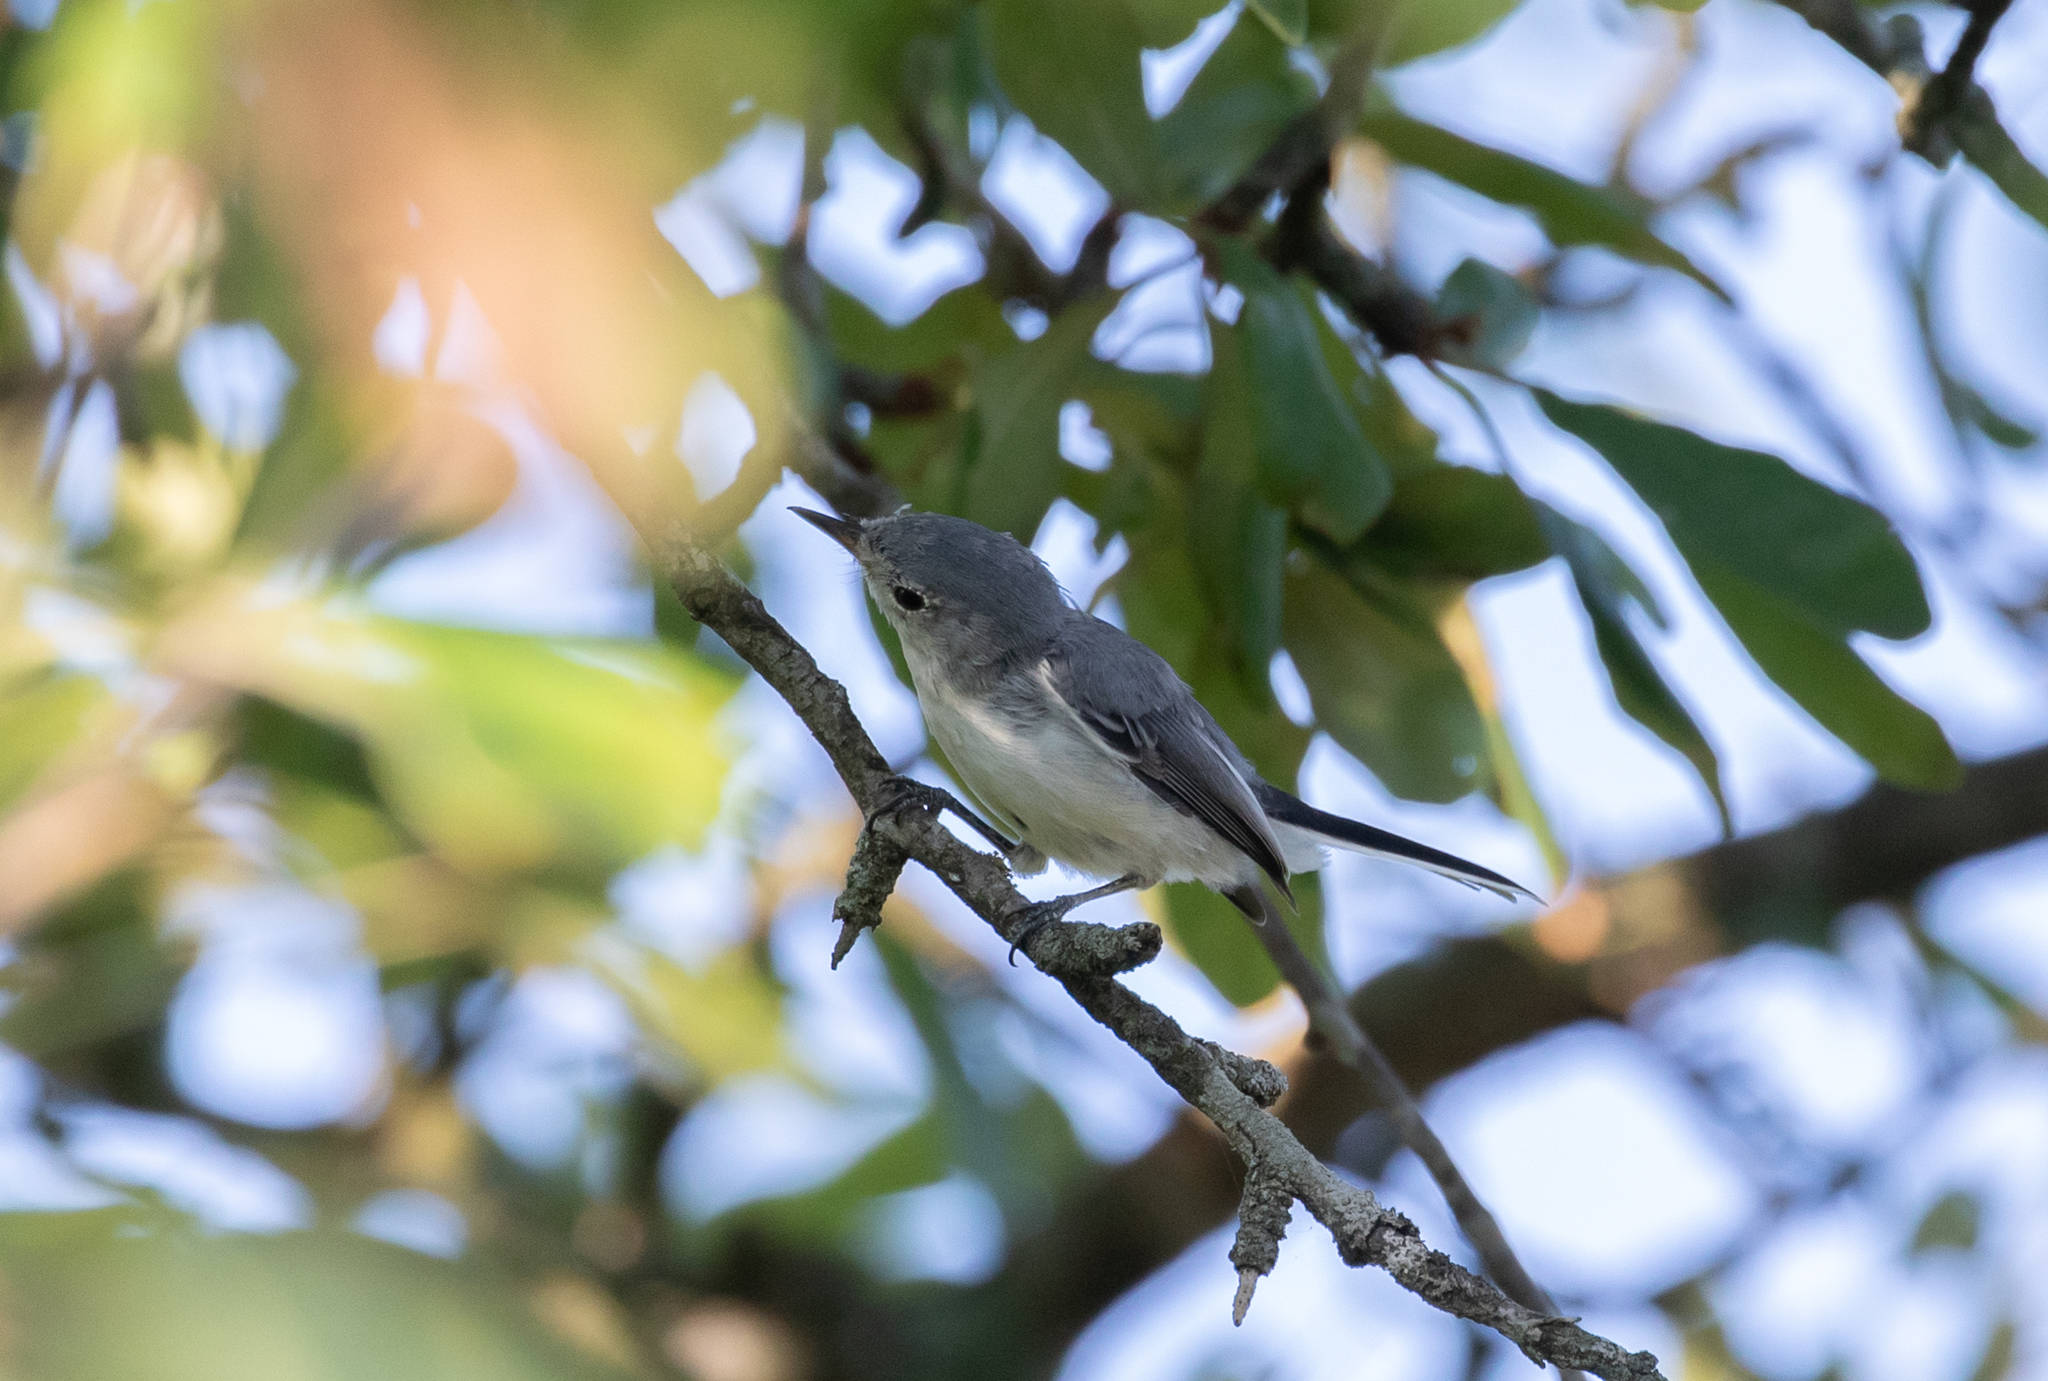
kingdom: Animalia
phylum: Chordata
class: Aves
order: Passeriformes
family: Polioptilidae
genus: Polioptila
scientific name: Polioptila caerulea
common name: Blue-gray gnatcatcher
